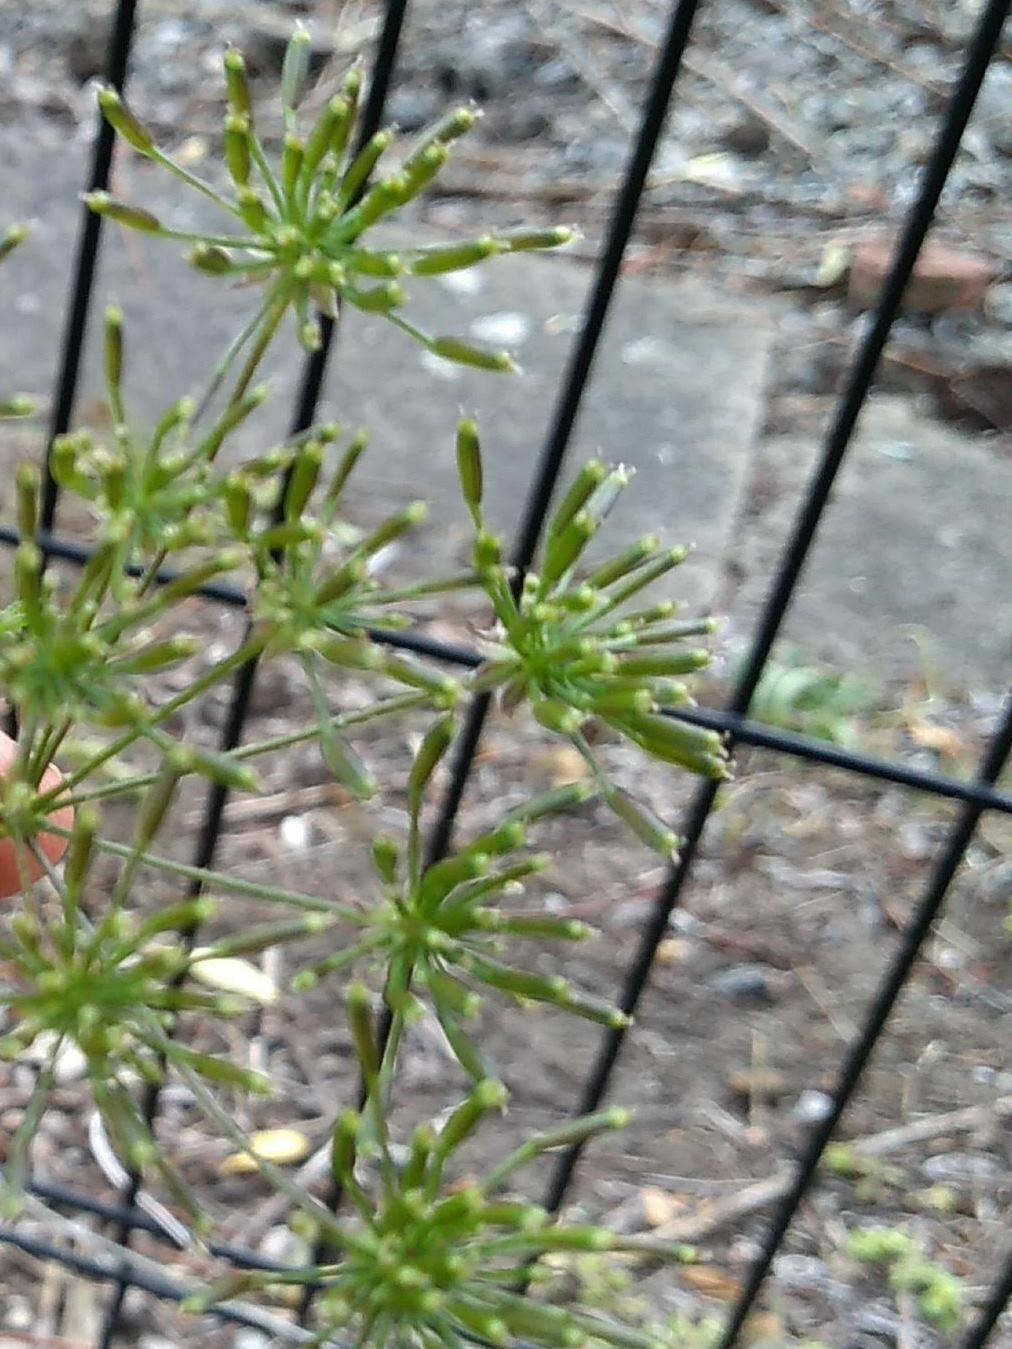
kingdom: Plantae
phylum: Tracheophyta
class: Magnoliopsida
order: Apiales
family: Apiaceae
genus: Chaerophyllum
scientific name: Chaerophyllum temulum
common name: Rough chervil
